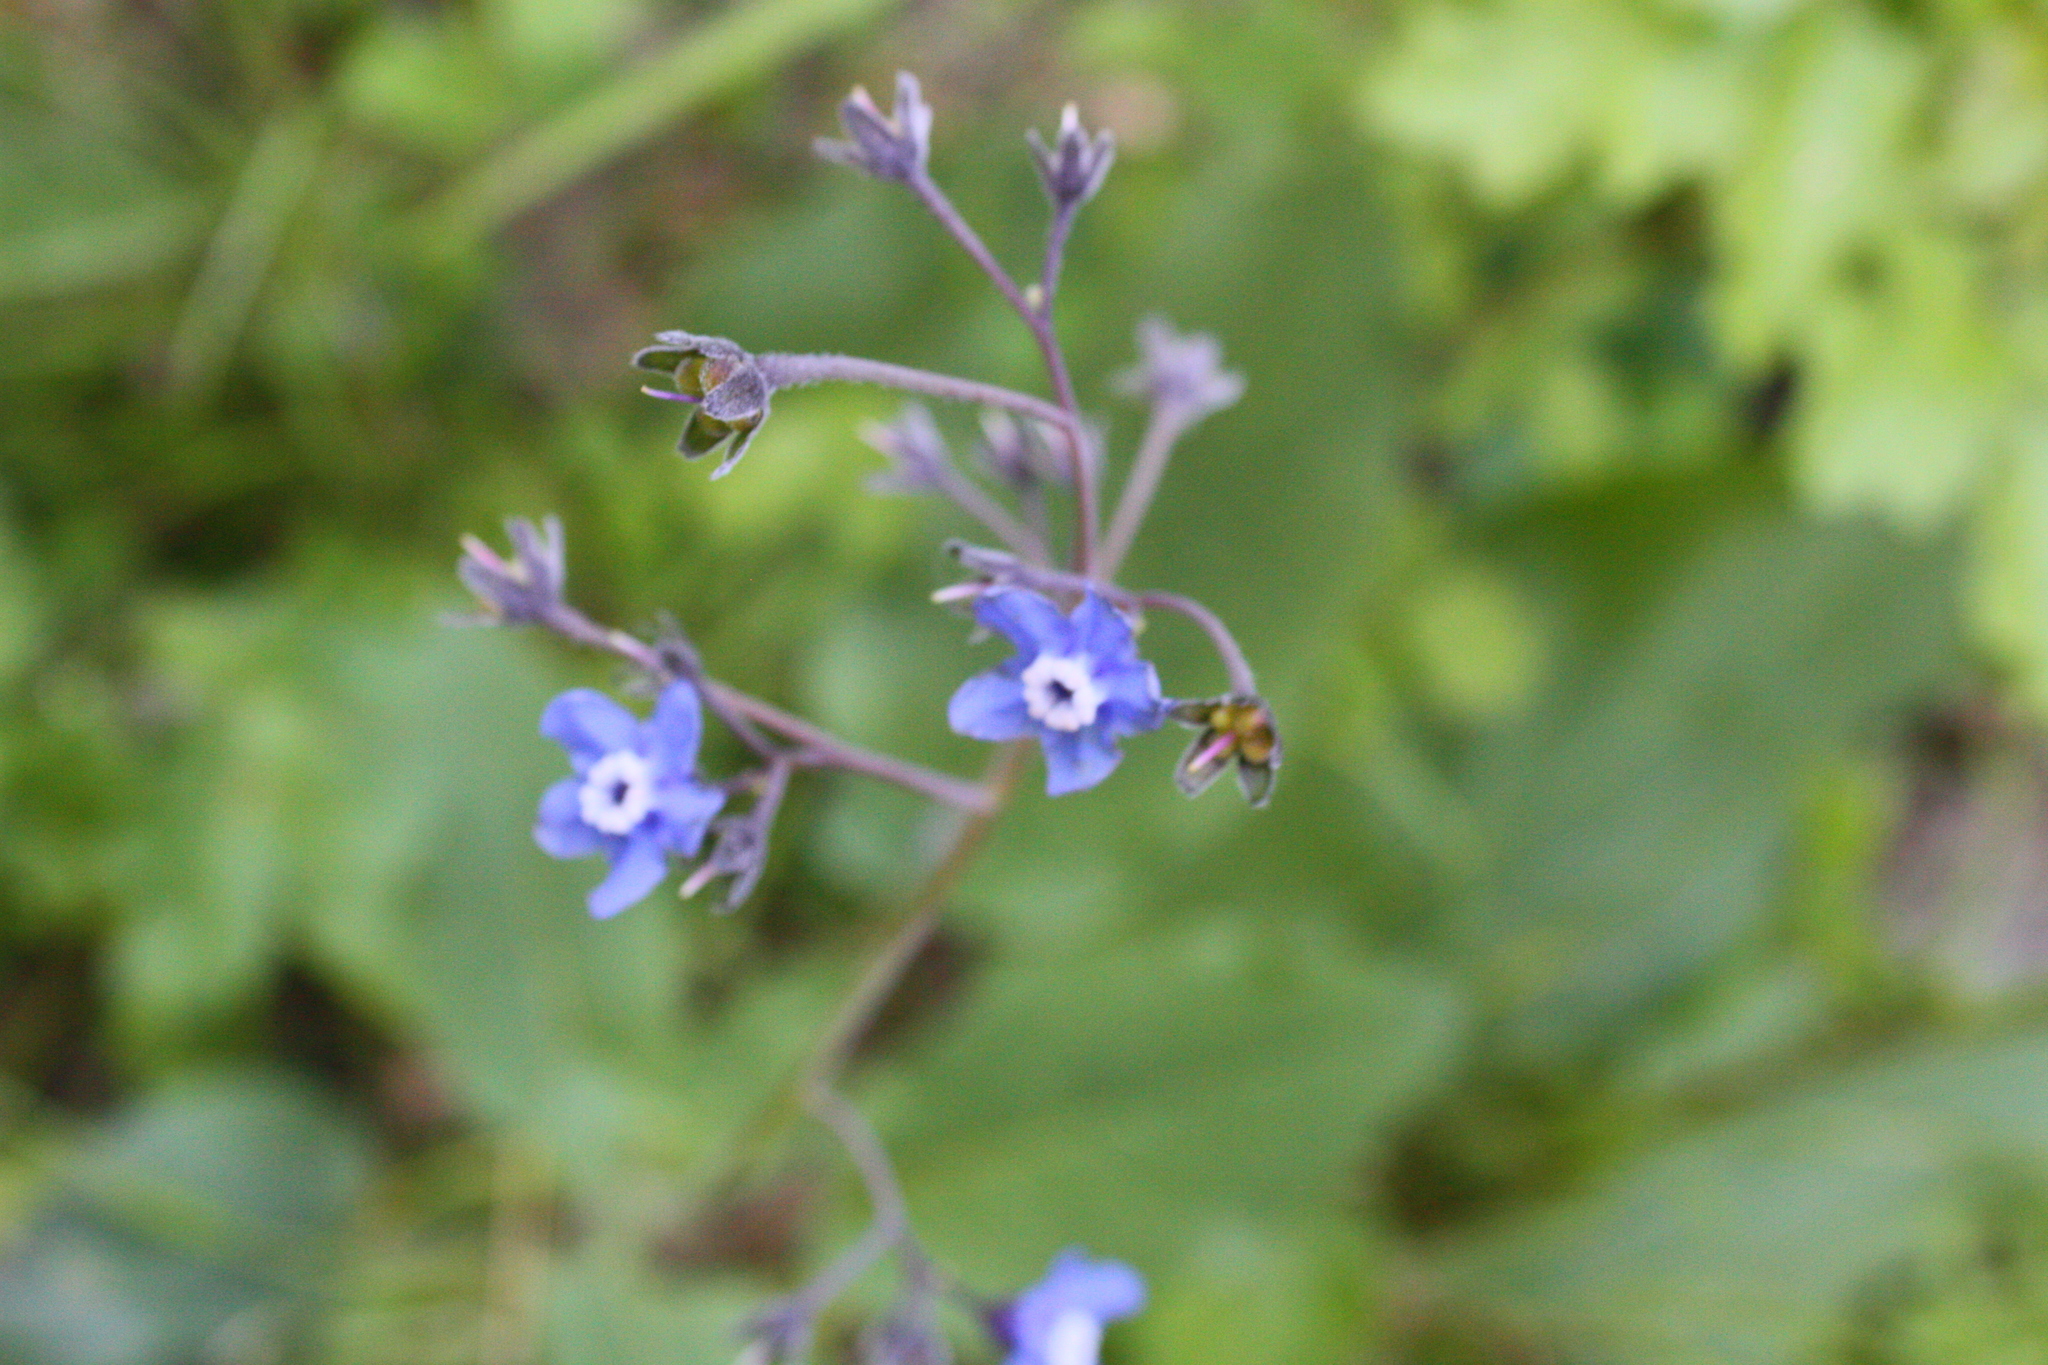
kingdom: Plantae
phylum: Tracheophyta
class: Magnoliopsida
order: Boraginales
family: Boraginaceae
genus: Adelinia
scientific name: Adelinia grande
